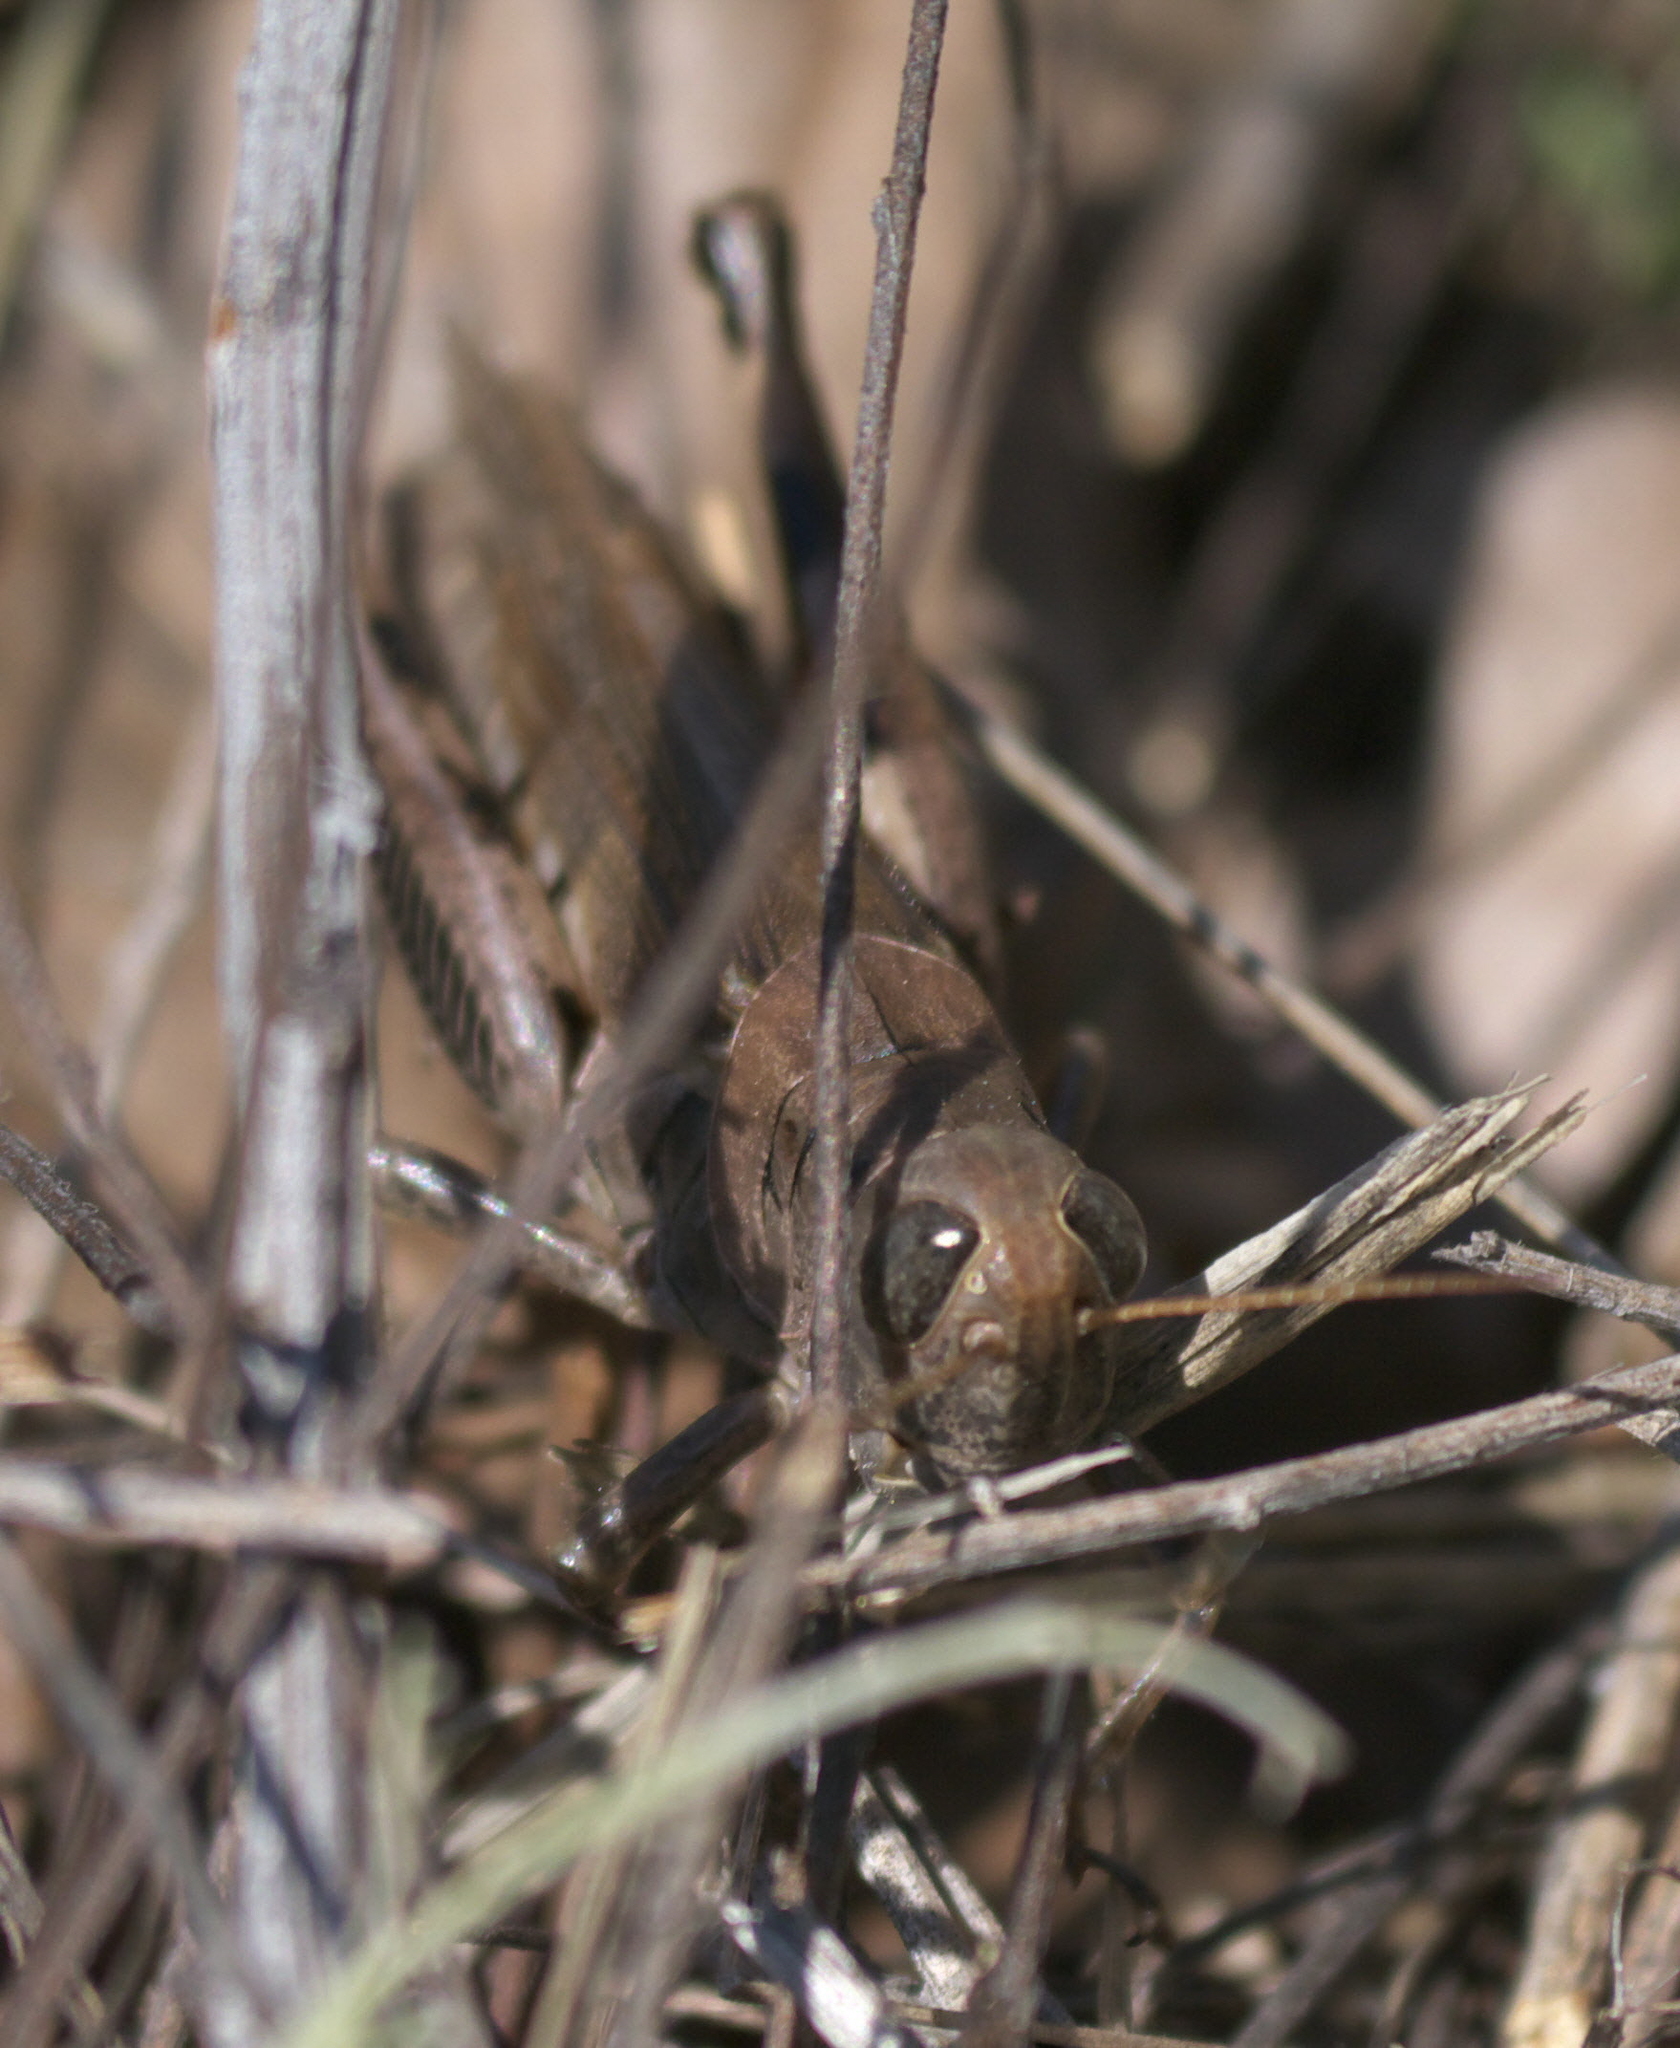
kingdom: Animalia
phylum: Arthropoda
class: Insecta
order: Orthoptera
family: Acrididae
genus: Melanoplus
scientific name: Melanoplus differentialis
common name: Differential grasshopper
